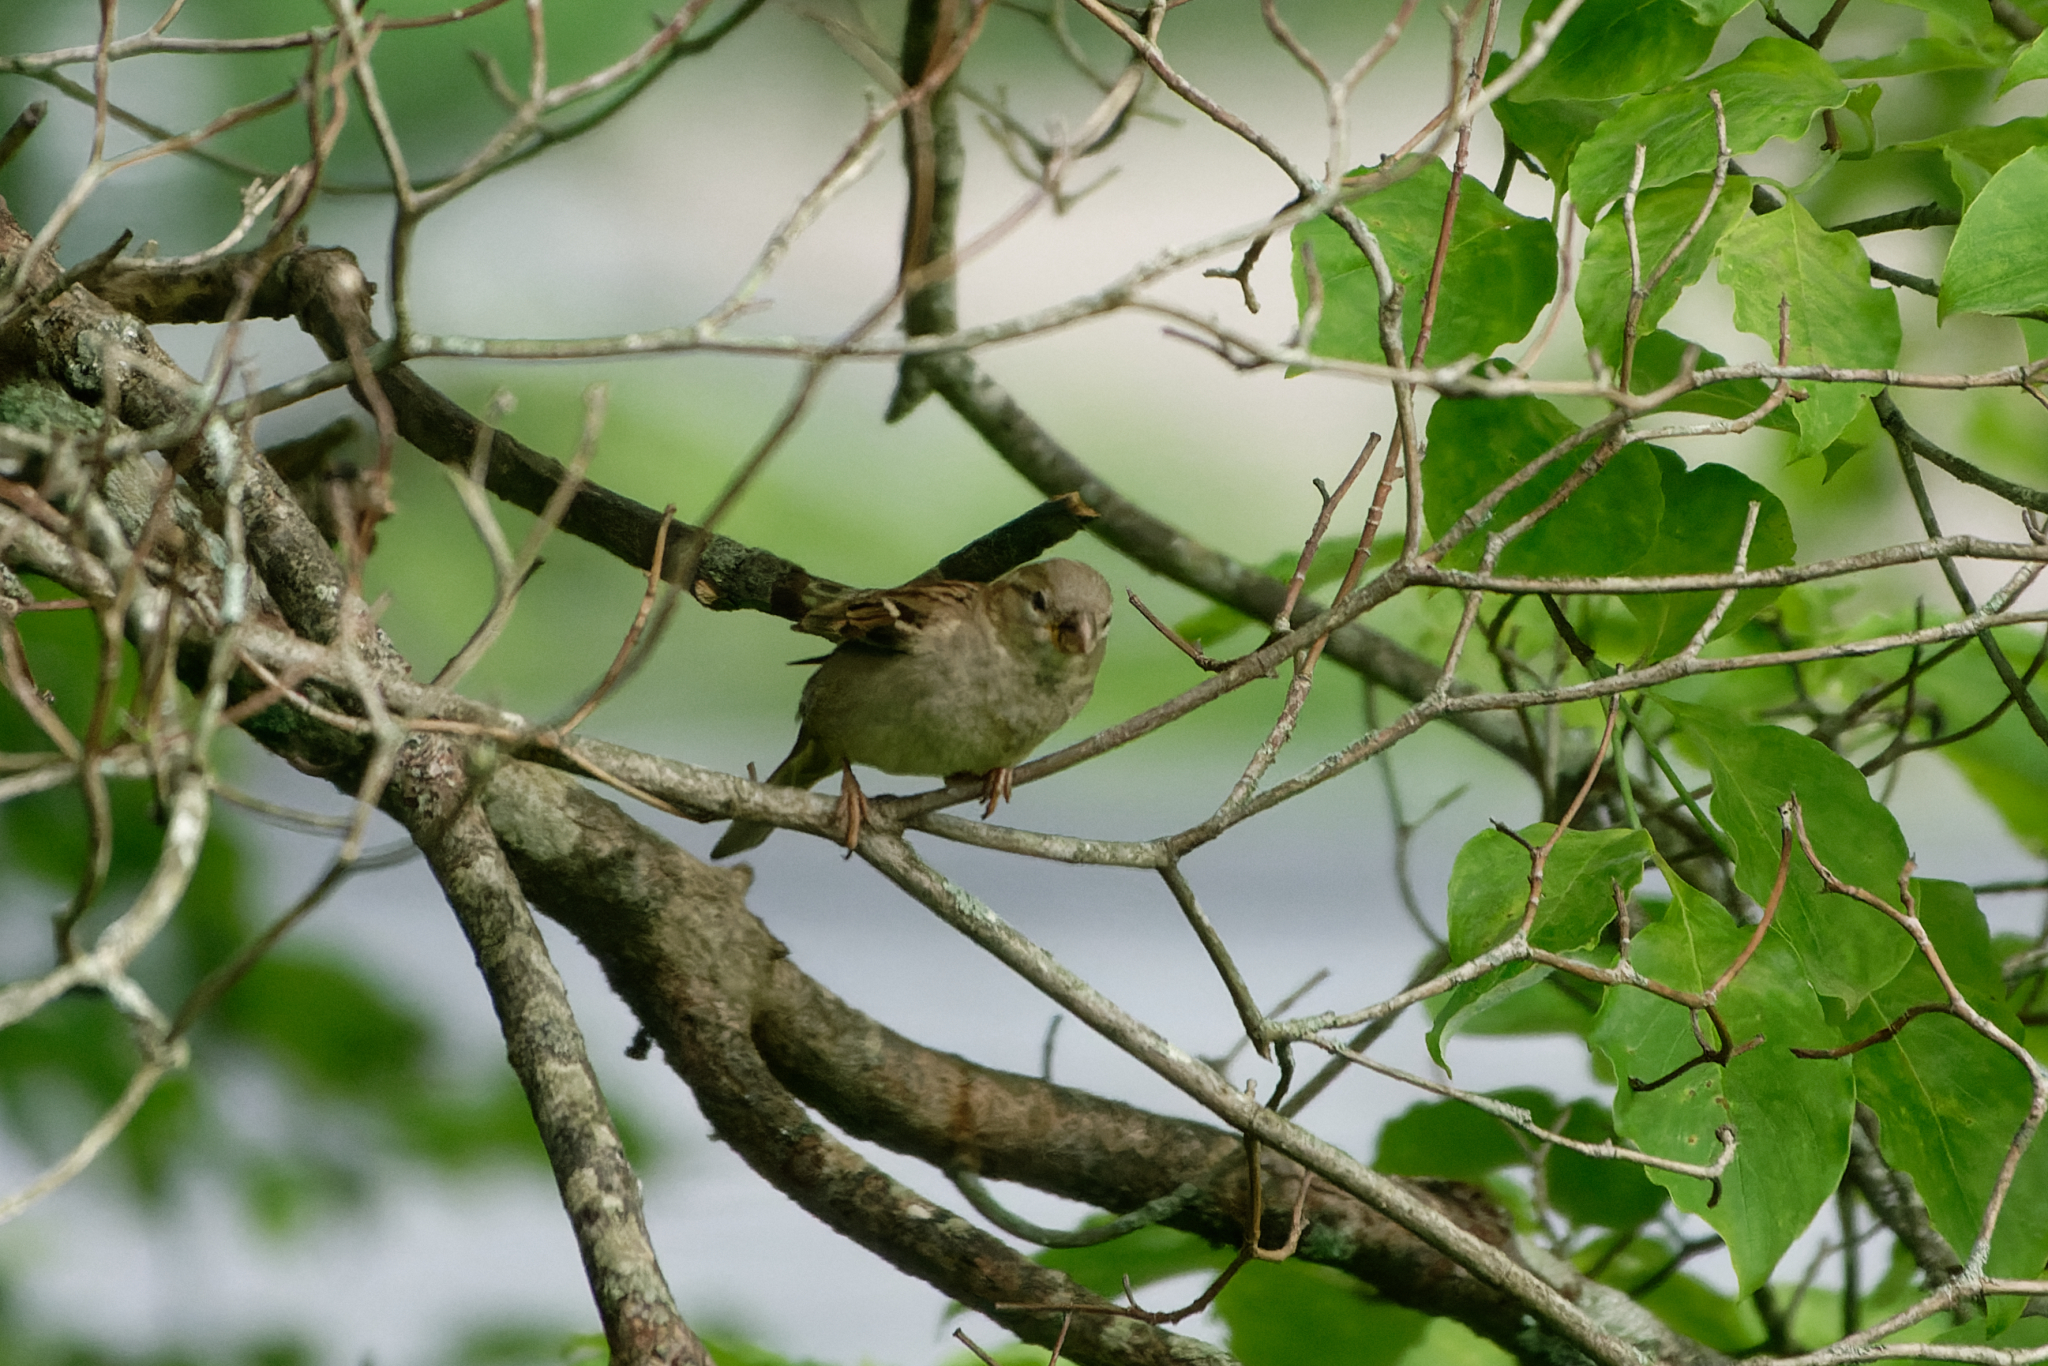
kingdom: Animalia
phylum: Chordata
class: Aves
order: Passeriformes
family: Passeridae
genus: Passer
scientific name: Passer domesticus
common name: House sparrow
